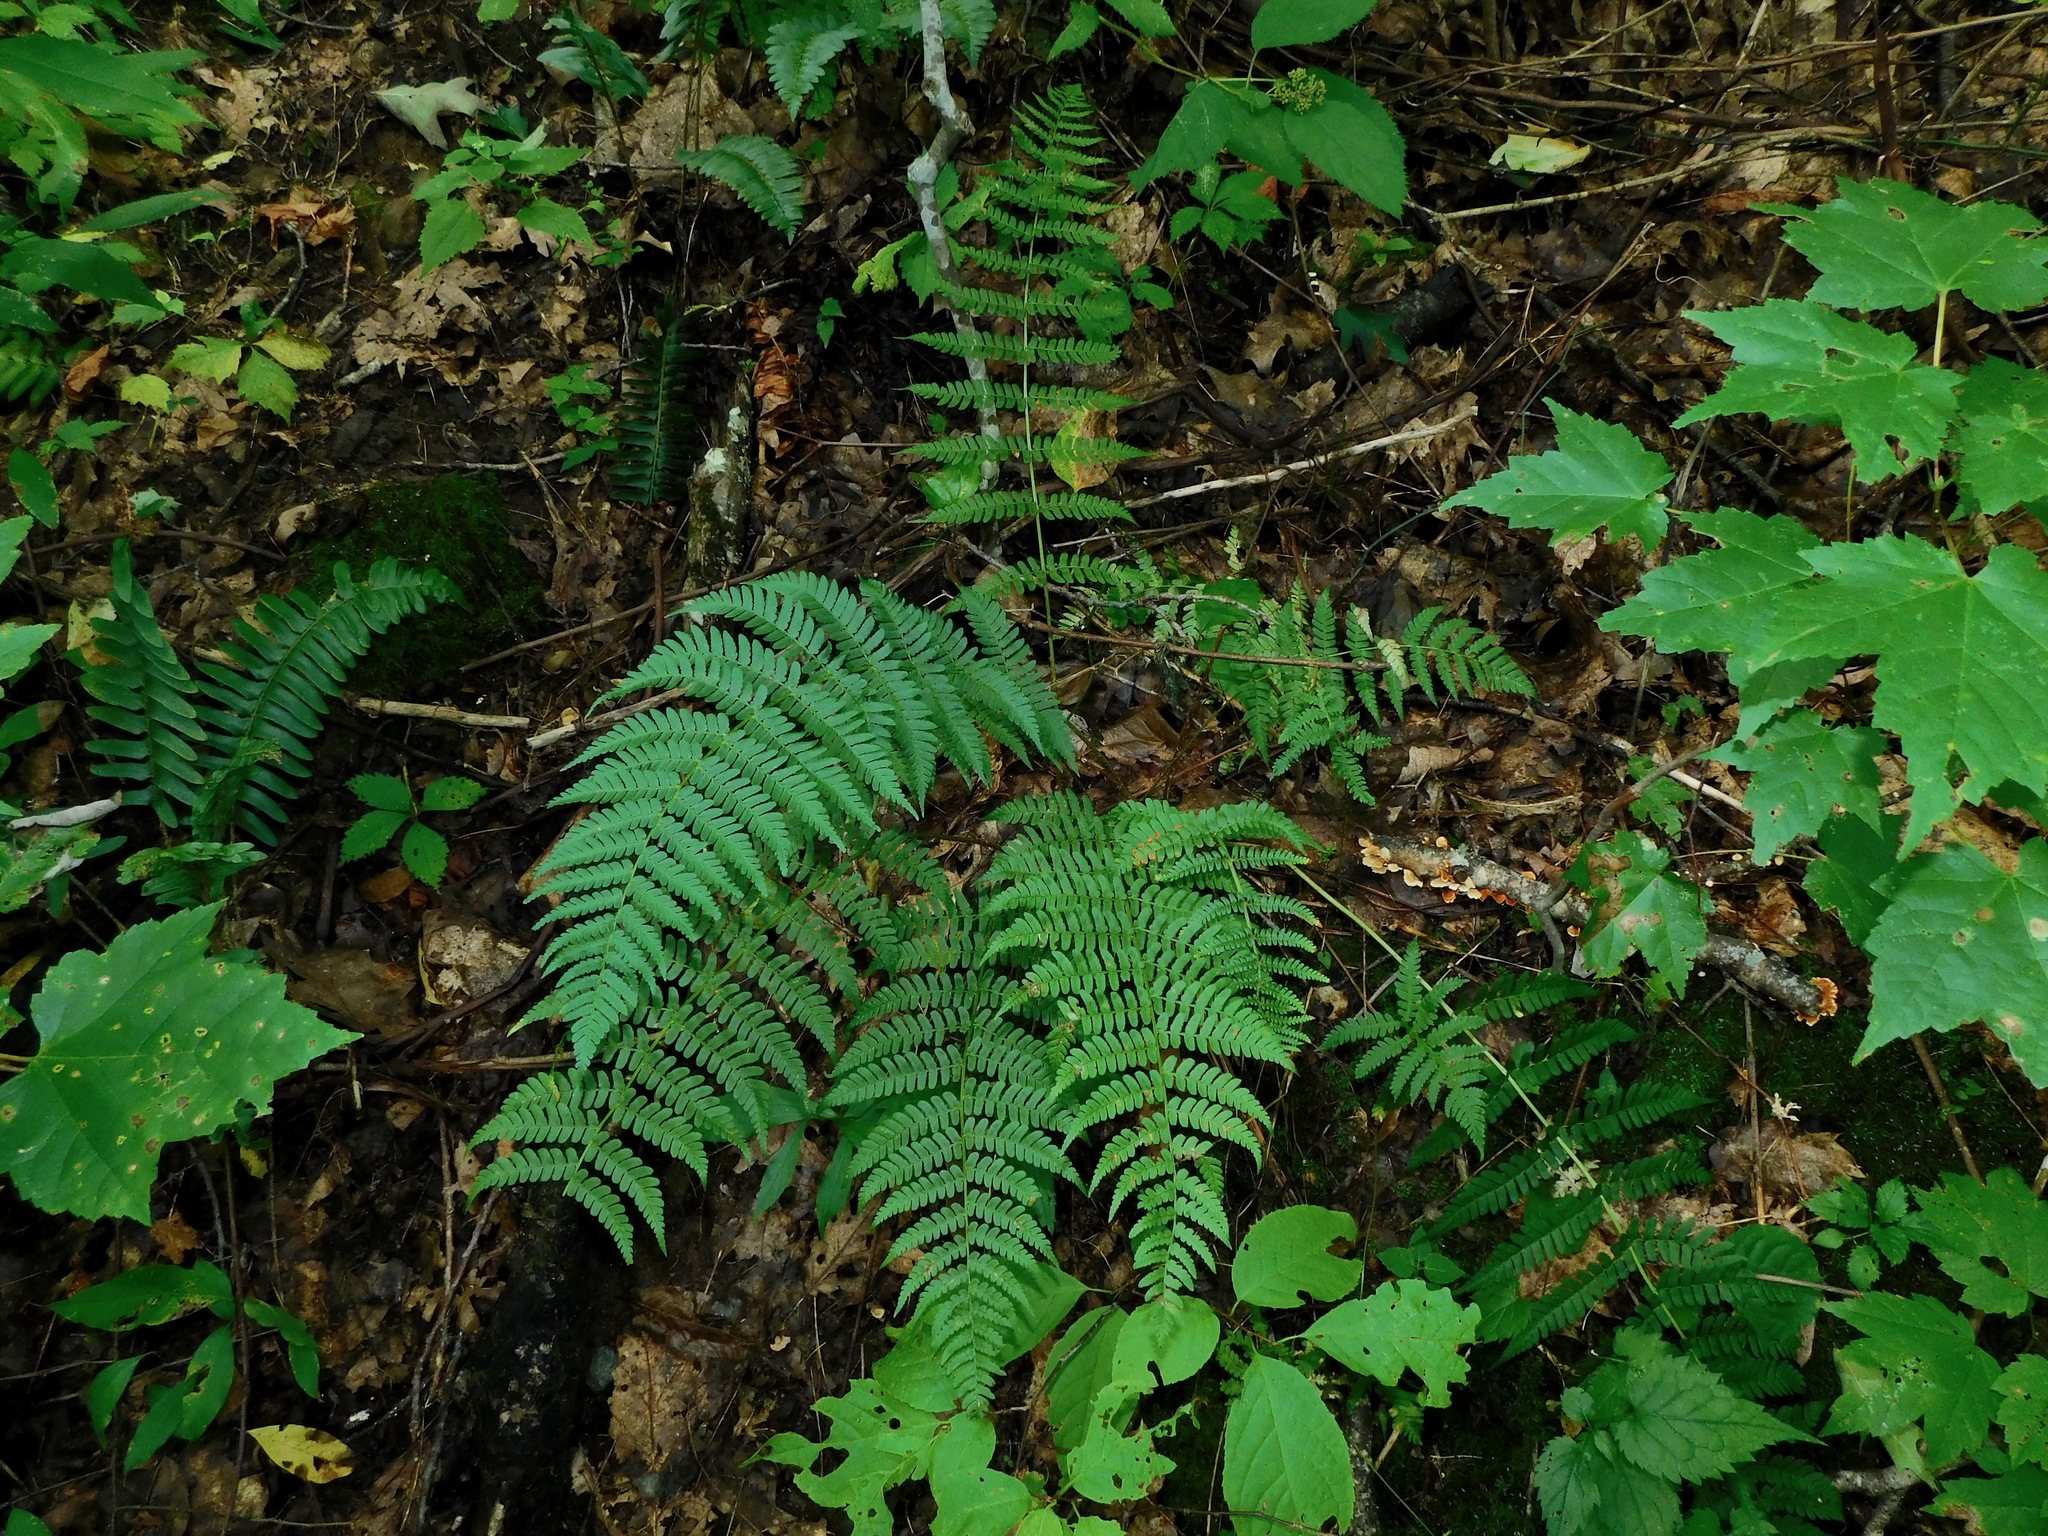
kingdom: Plantae
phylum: Tracheophyta
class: Polypodiopsida
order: Polypodiales
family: Dryopteridaceae
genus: Dryopteris
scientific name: Dryopteris marginalis
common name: Marginal wood fern
